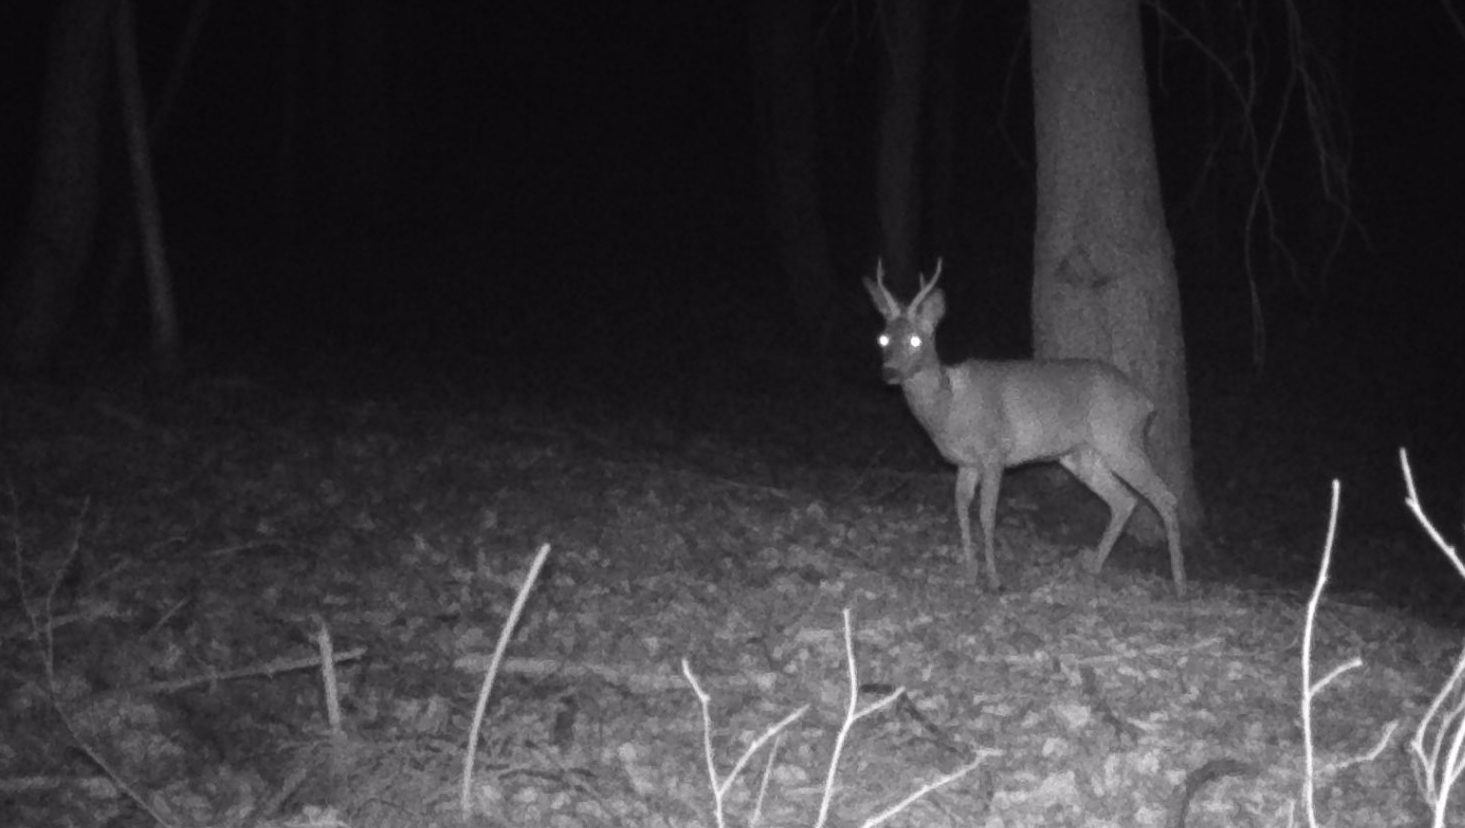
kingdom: Animalia
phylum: Chordata
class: Mammalia
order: Artiodactyla
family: Cervidae
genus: Capreolus
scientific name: Capreolus capreolus
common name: Western roe deer
